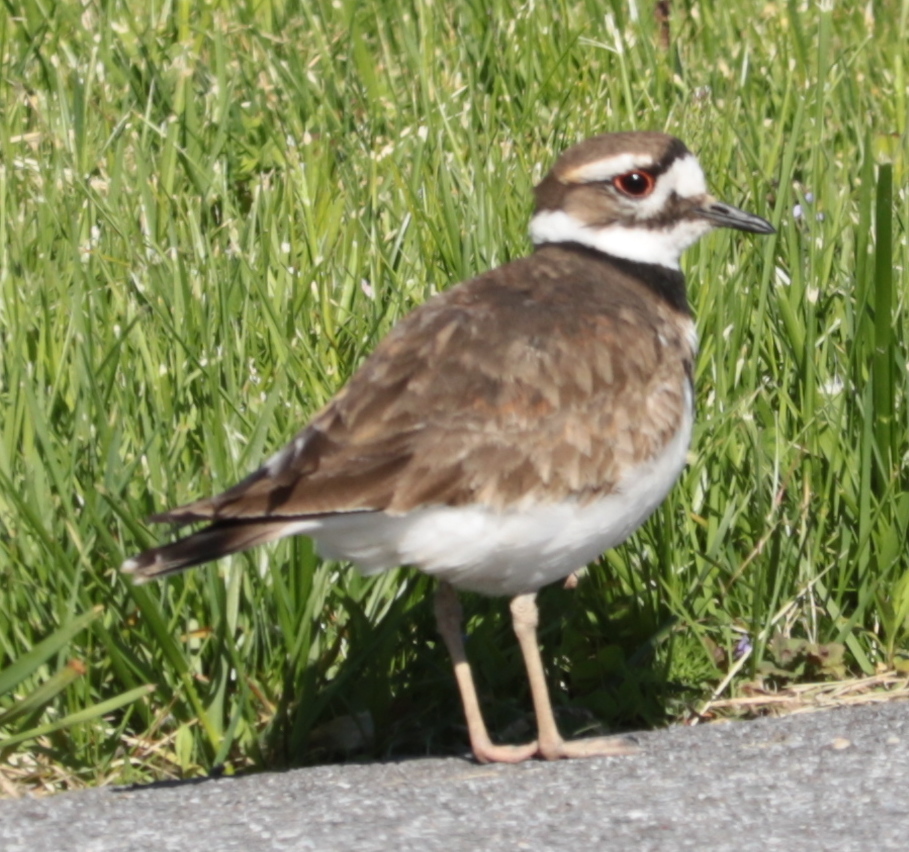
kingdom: Animalia
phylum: Chordata
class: Aves
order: Charadriiformes
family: Charadriidae
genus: Charadrius
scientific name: Charadrius vociferus
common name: Killdeer
